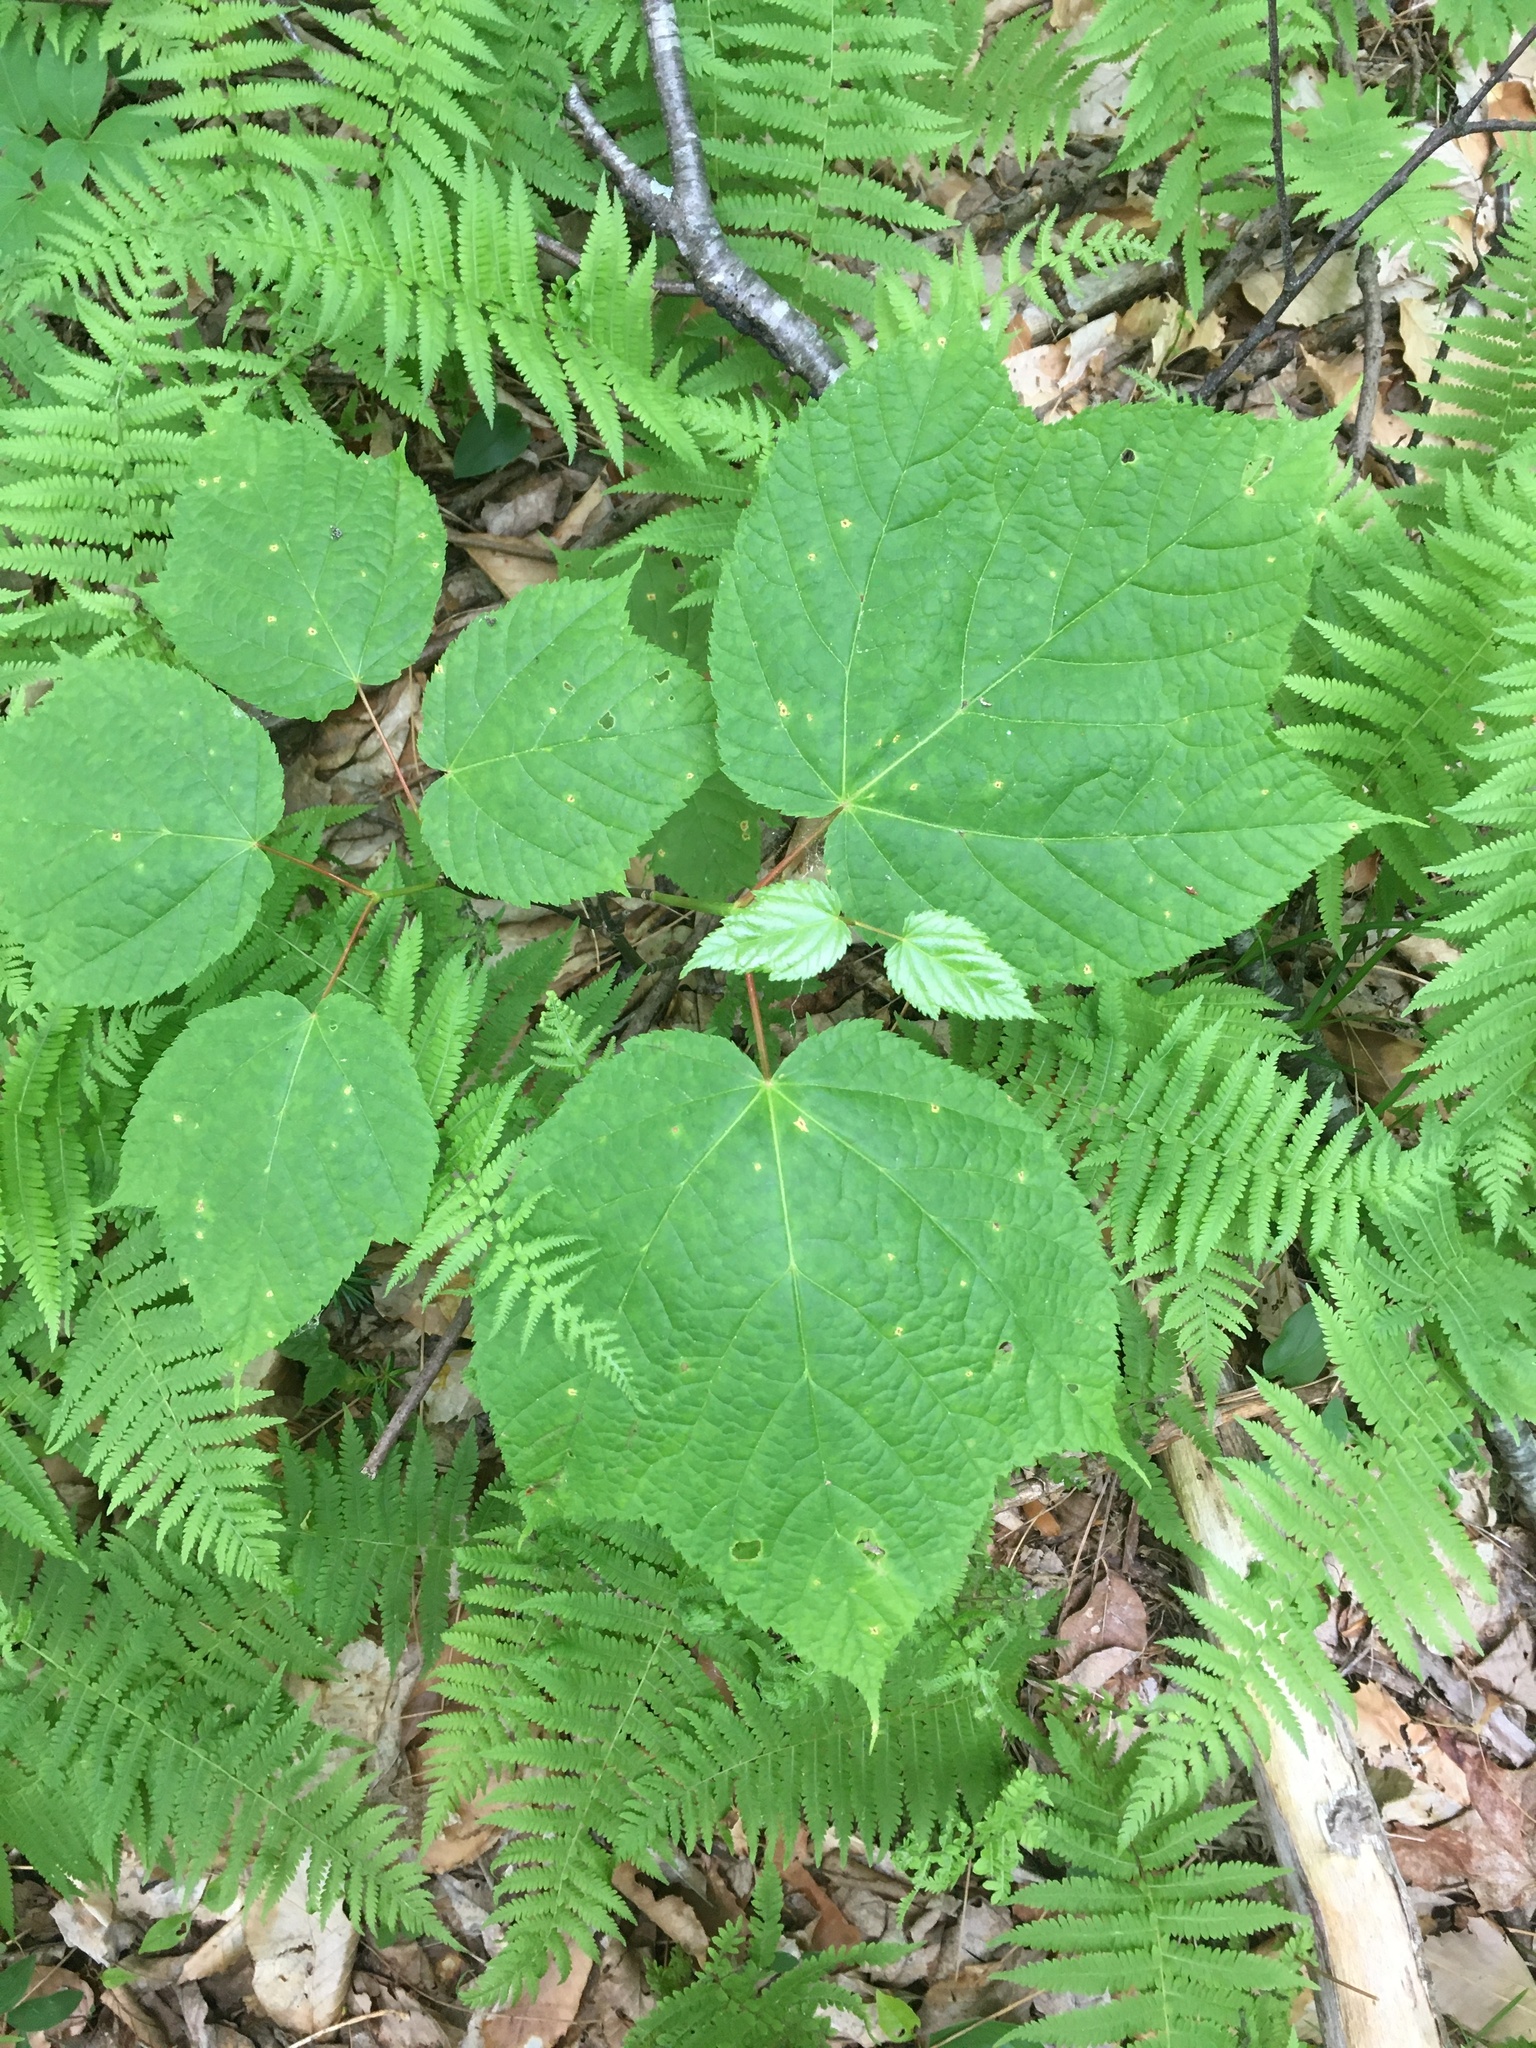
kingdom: Plantae
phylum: Tracheophyta
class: Magnoliopsida
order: Sapindales
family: Sapindaceae
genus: Acer
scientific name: Acer pensylvanicum
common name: Moosewood
